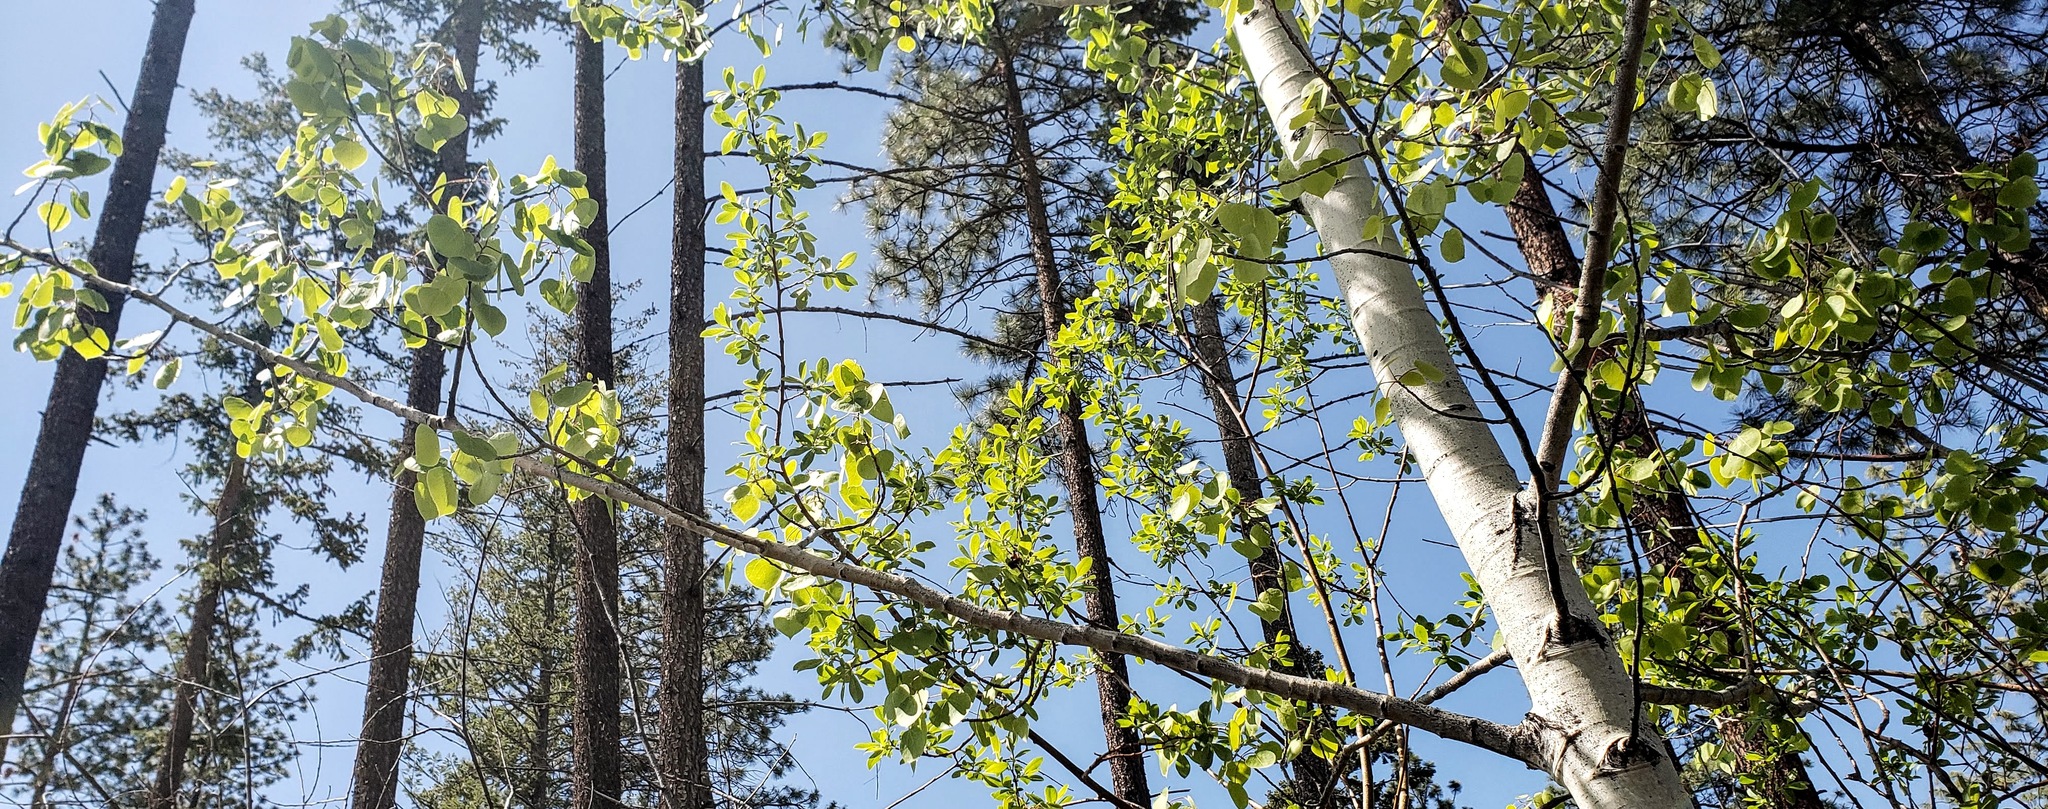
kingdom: Plantae
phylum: Tracheophyta
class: Magnoliopsida
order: Malpighiales
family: Salicaceae
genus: Populus
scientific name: Populus tremuloides
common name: Quaking aspen
